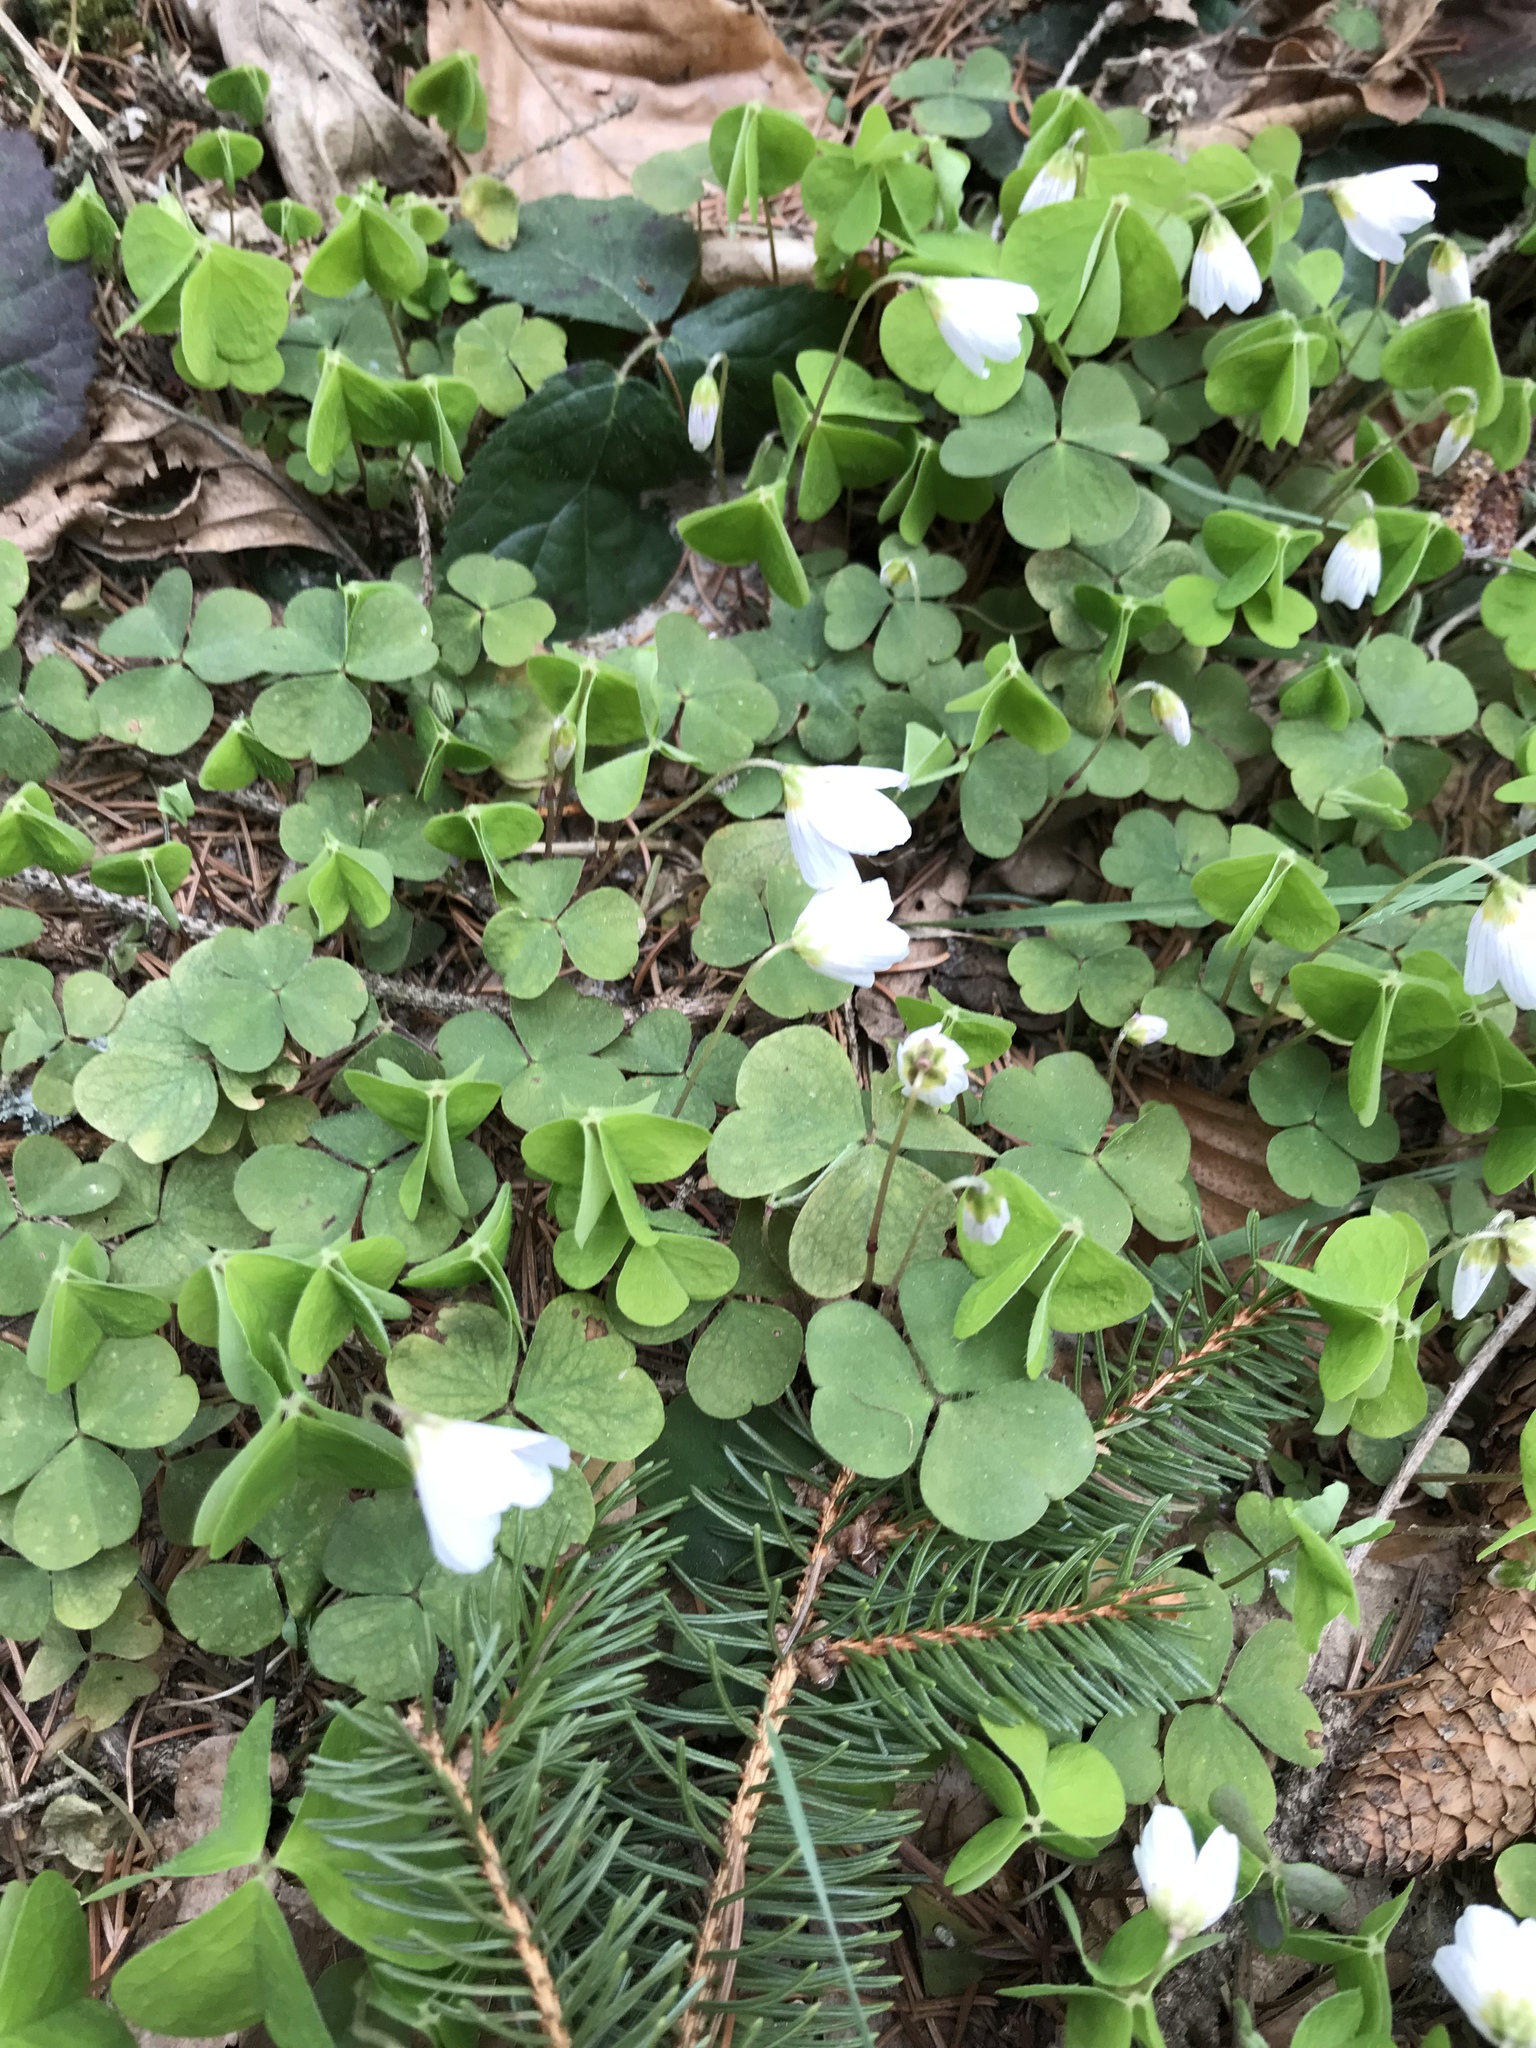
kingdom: Plantae
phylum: Tracheophyta
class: Magnoliopsida
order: Oxalidales
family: Oxalidaceae
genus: Oxalis
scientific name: Oxalis acetosella
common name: Wood-sorrel
